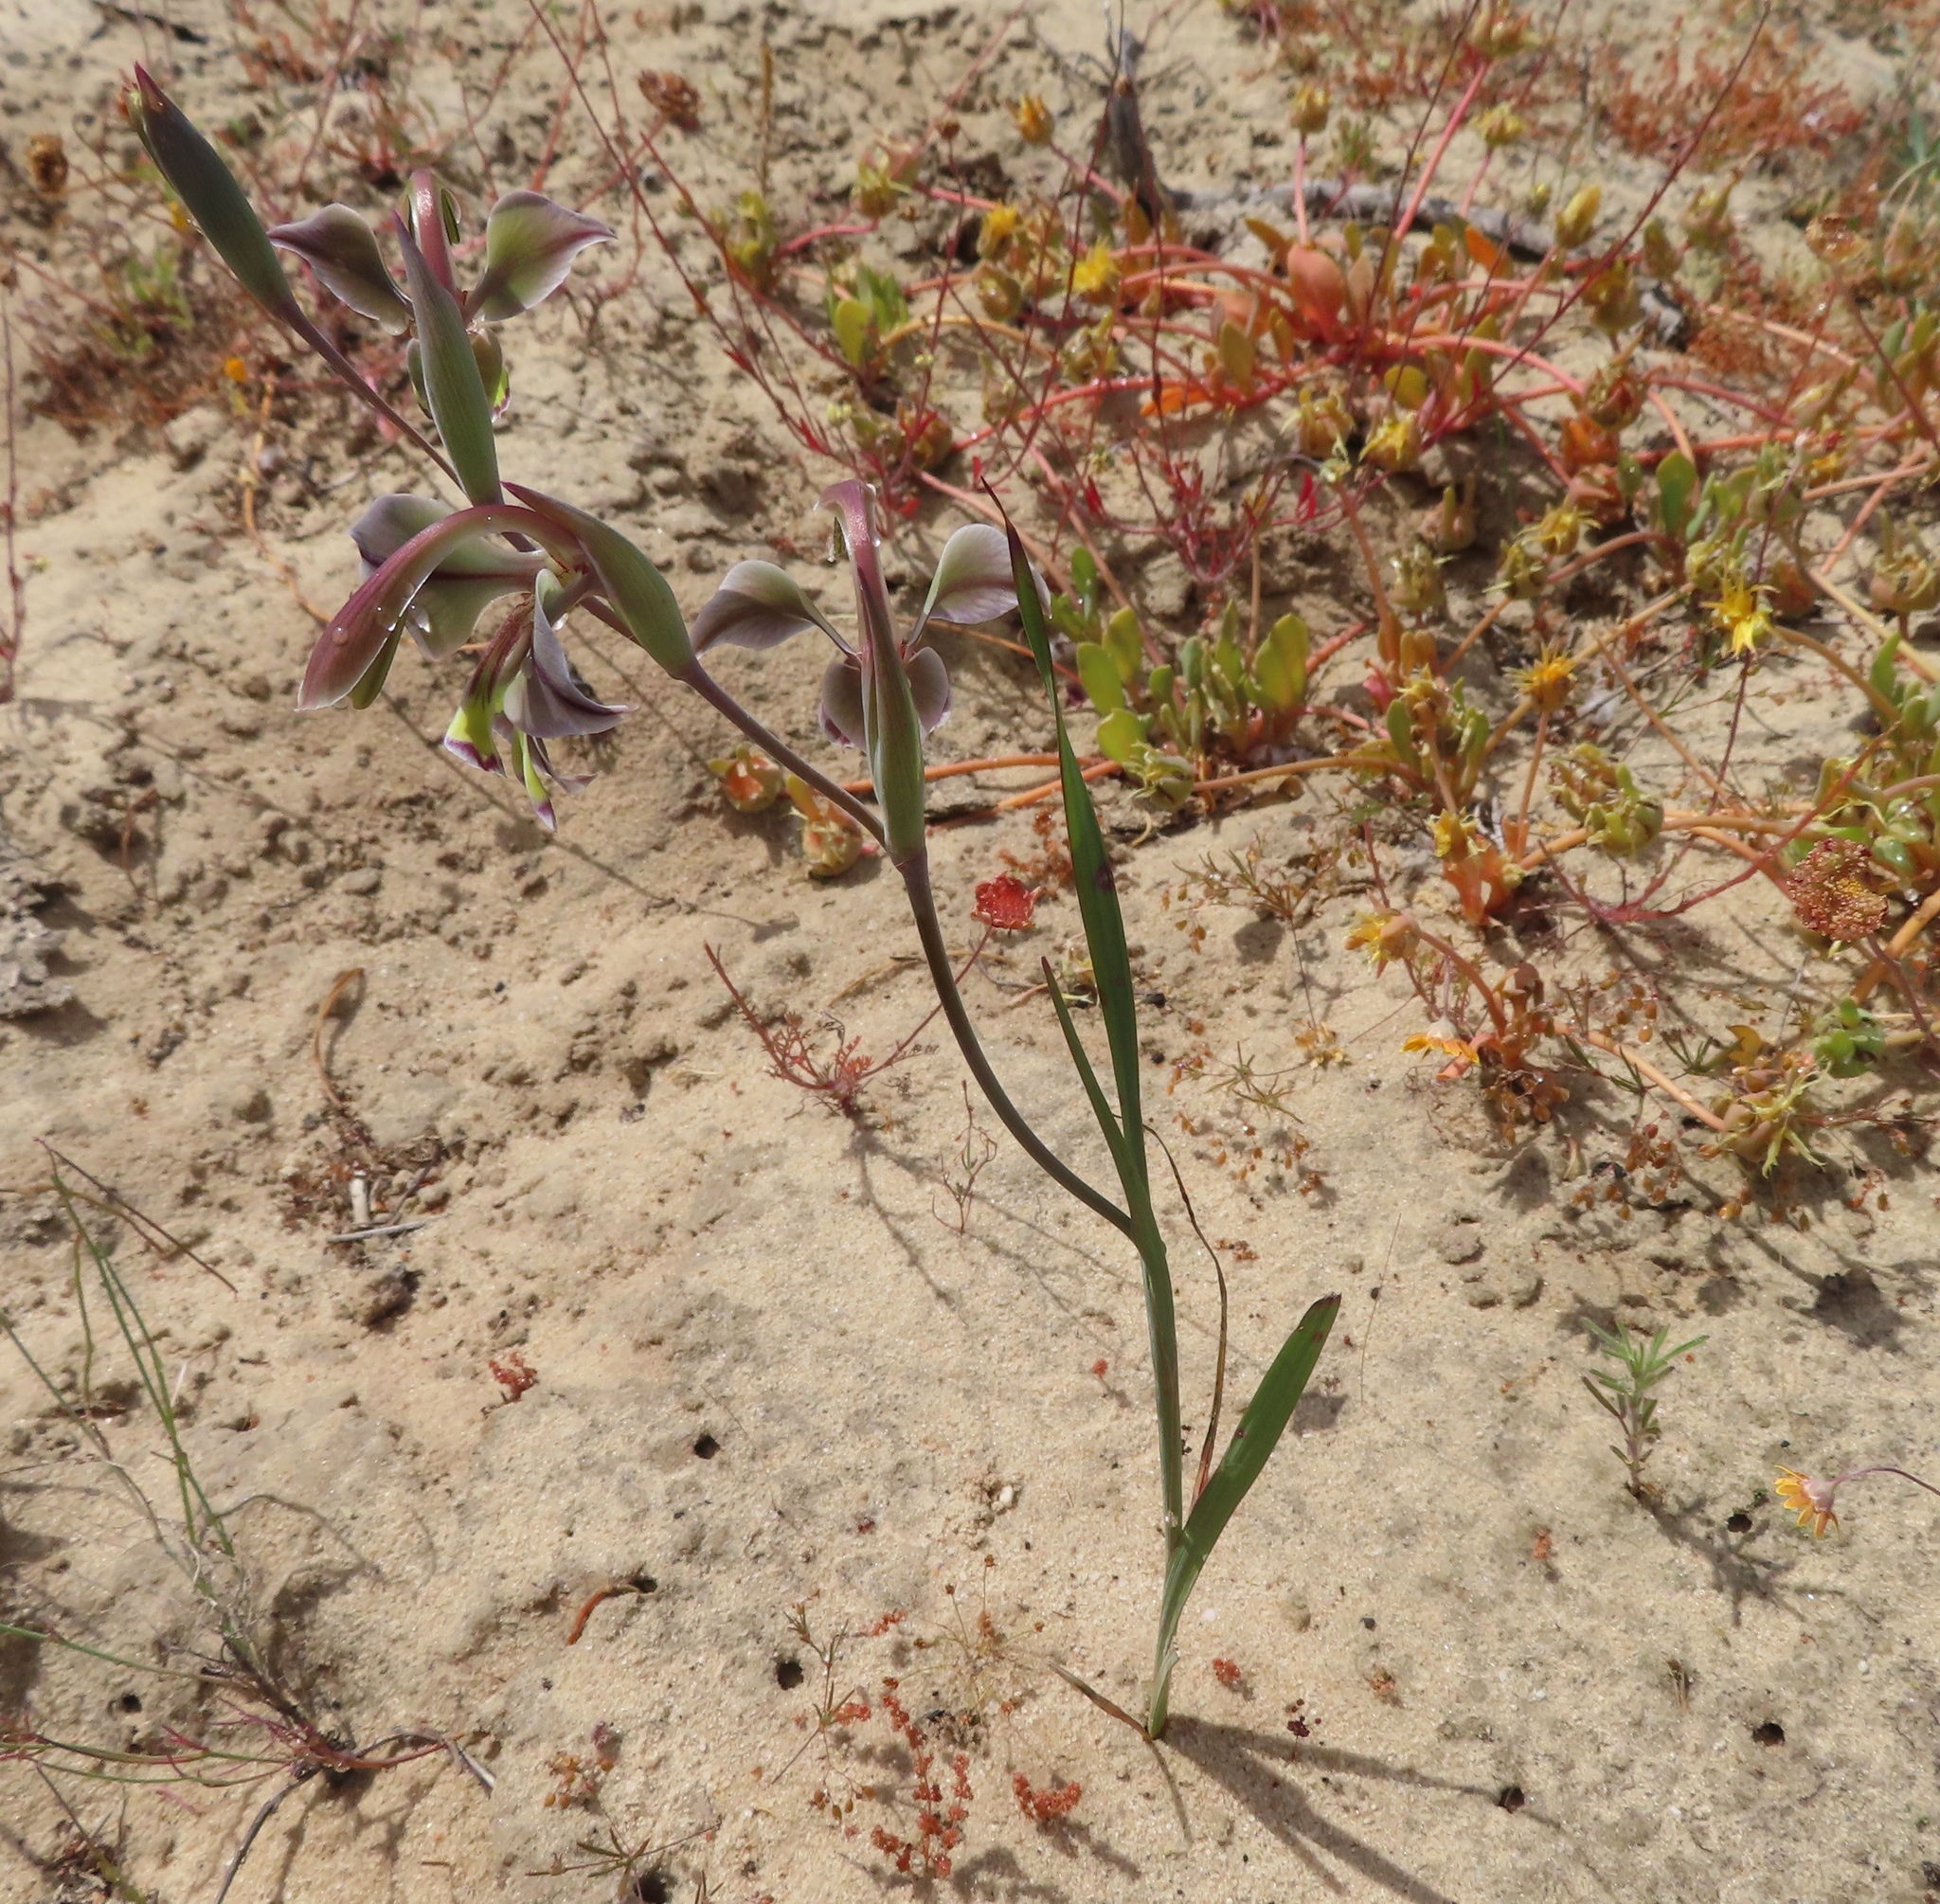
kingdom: Plantae
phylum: Tracheophyta
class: Liliopsida
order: Asparagales
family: Iridaceae
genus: Gladiolus
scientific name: Gladiolus orchidiflorus
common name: Gray kalkoentjie
